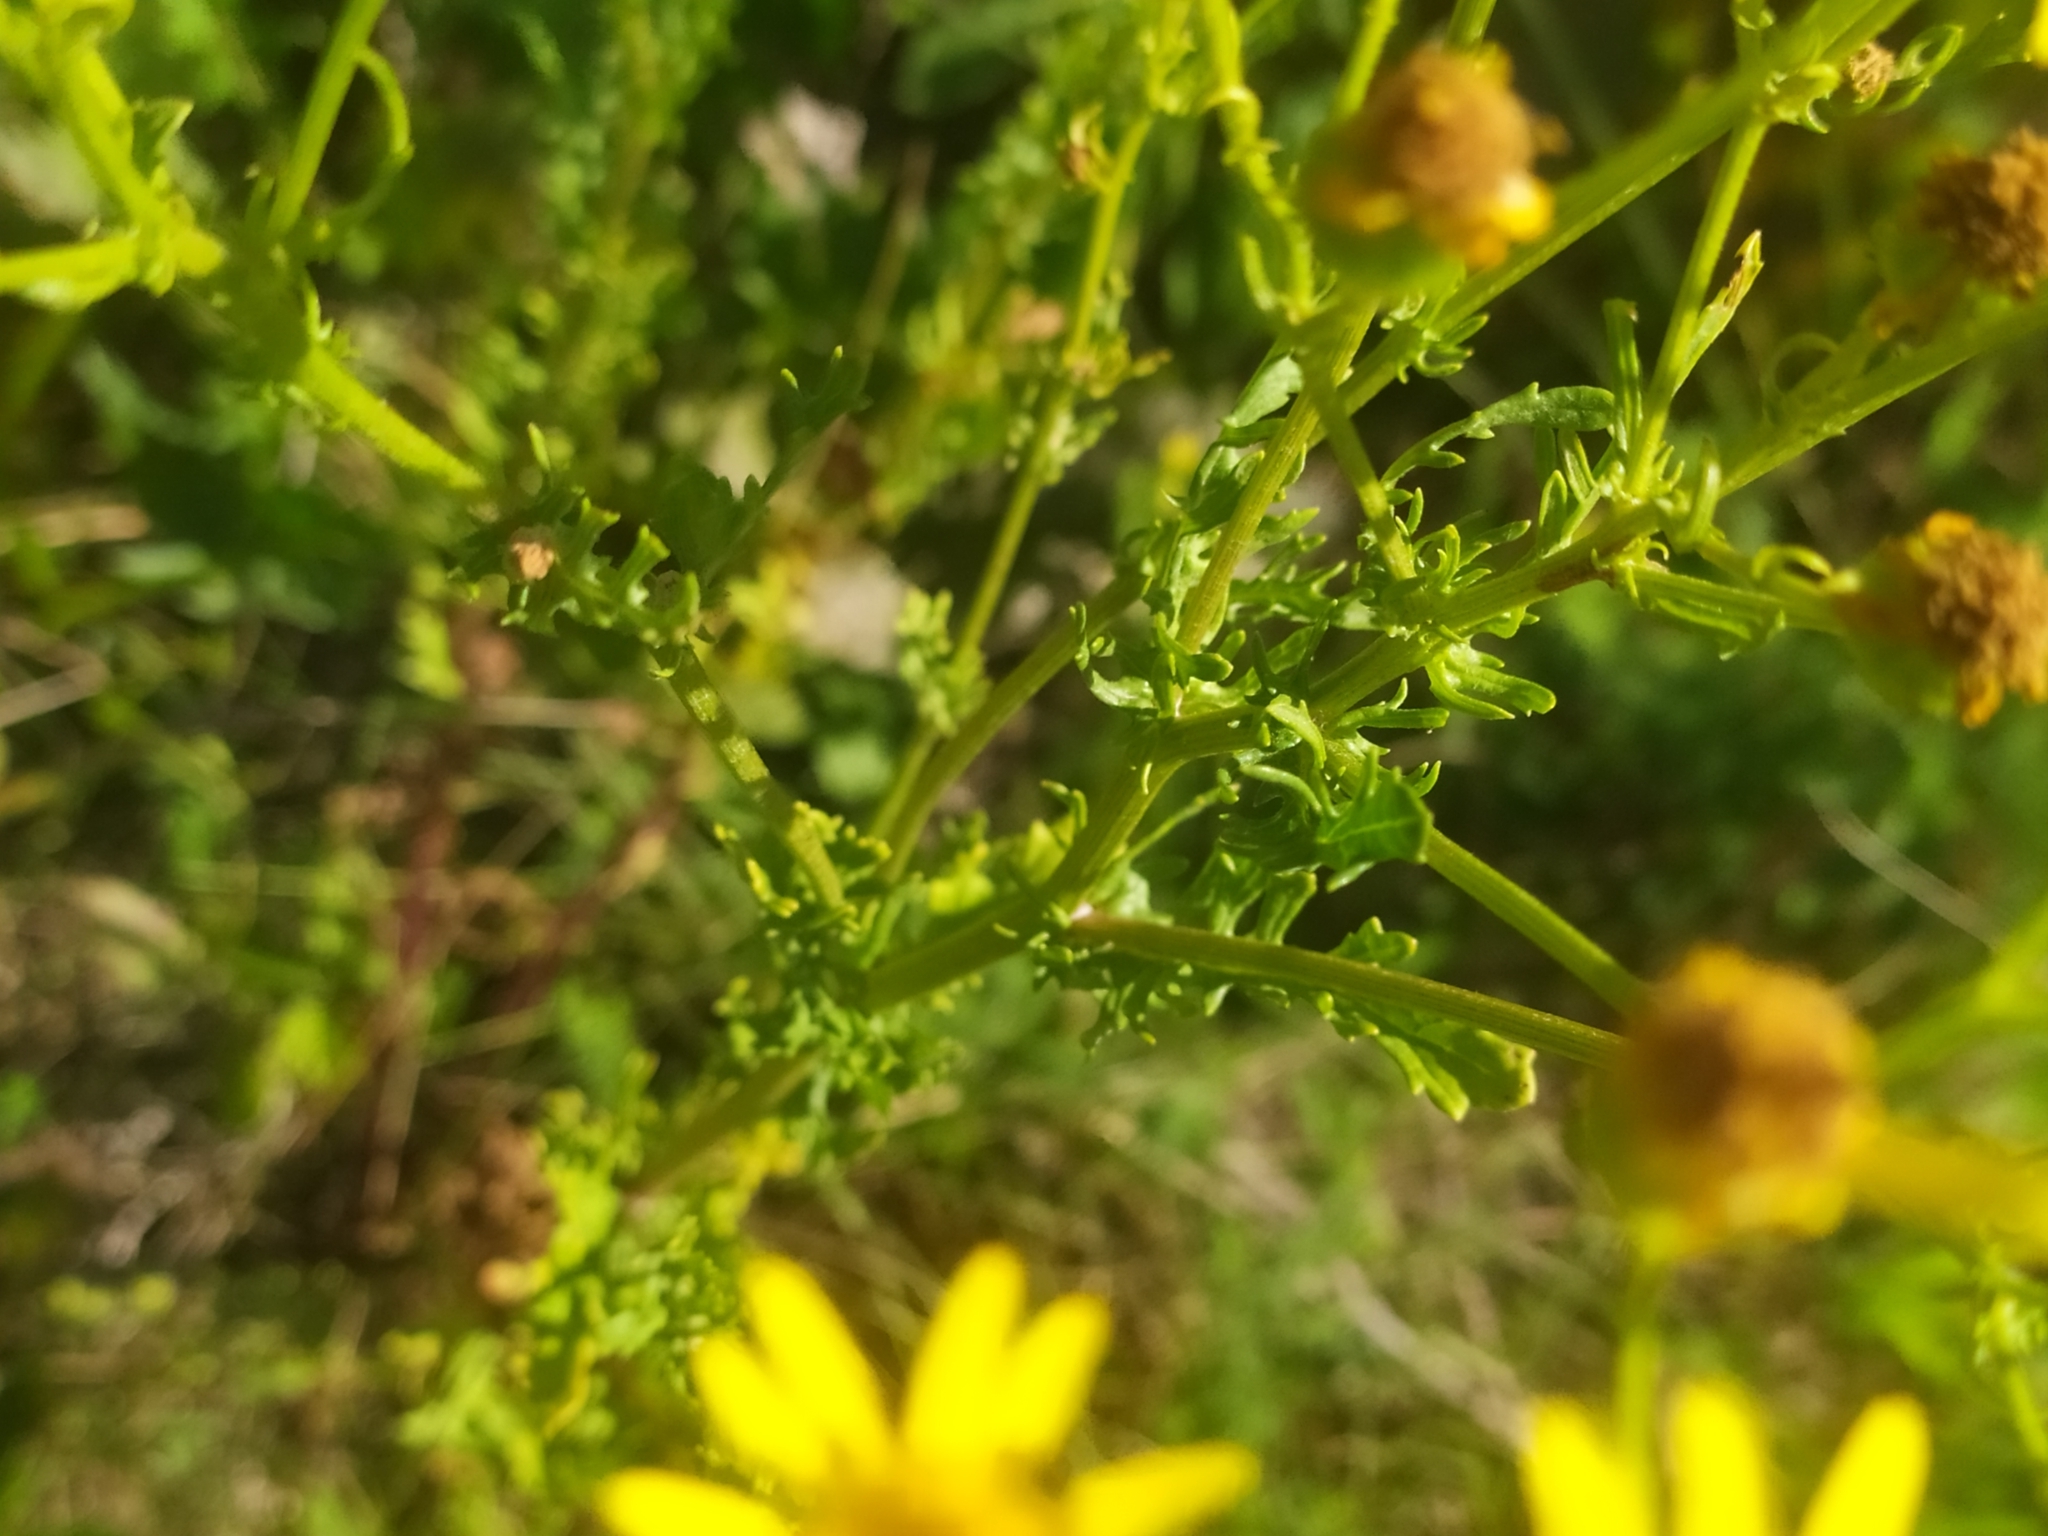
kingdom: Plantae
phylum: Tracheophyta
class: Magnoliopsida
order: Asterales
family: Asteraceae
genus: Jacobaea
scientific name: Jacobaea vulgaris
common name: Stinking willie
